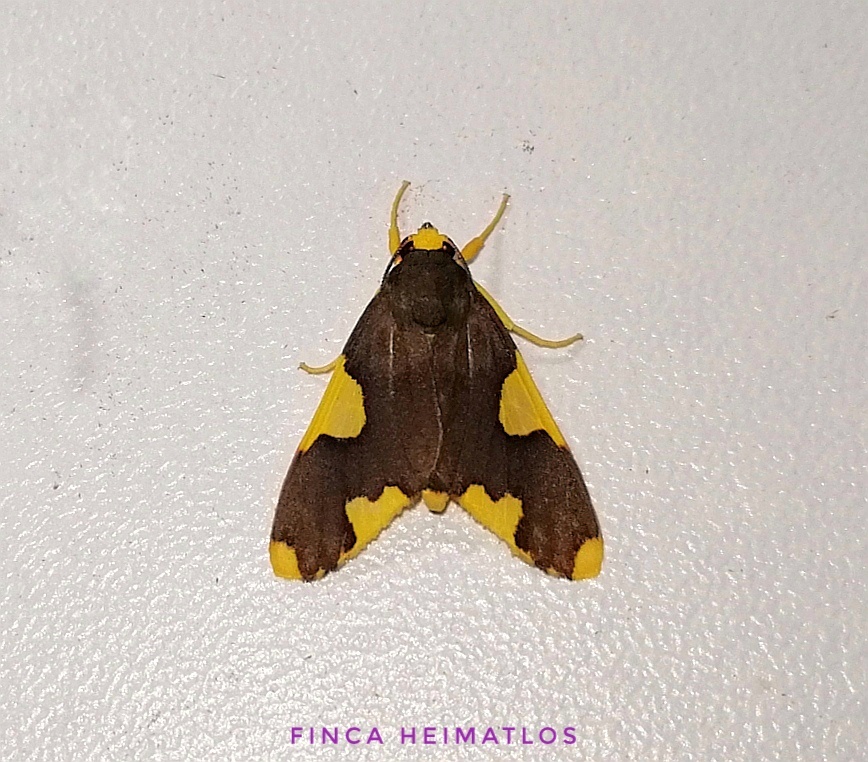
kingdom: Animalia
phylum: Arthropoda
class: Insecta
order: Lepidoptera
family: Erebidae
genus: Trichromia
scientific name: Trichromia
